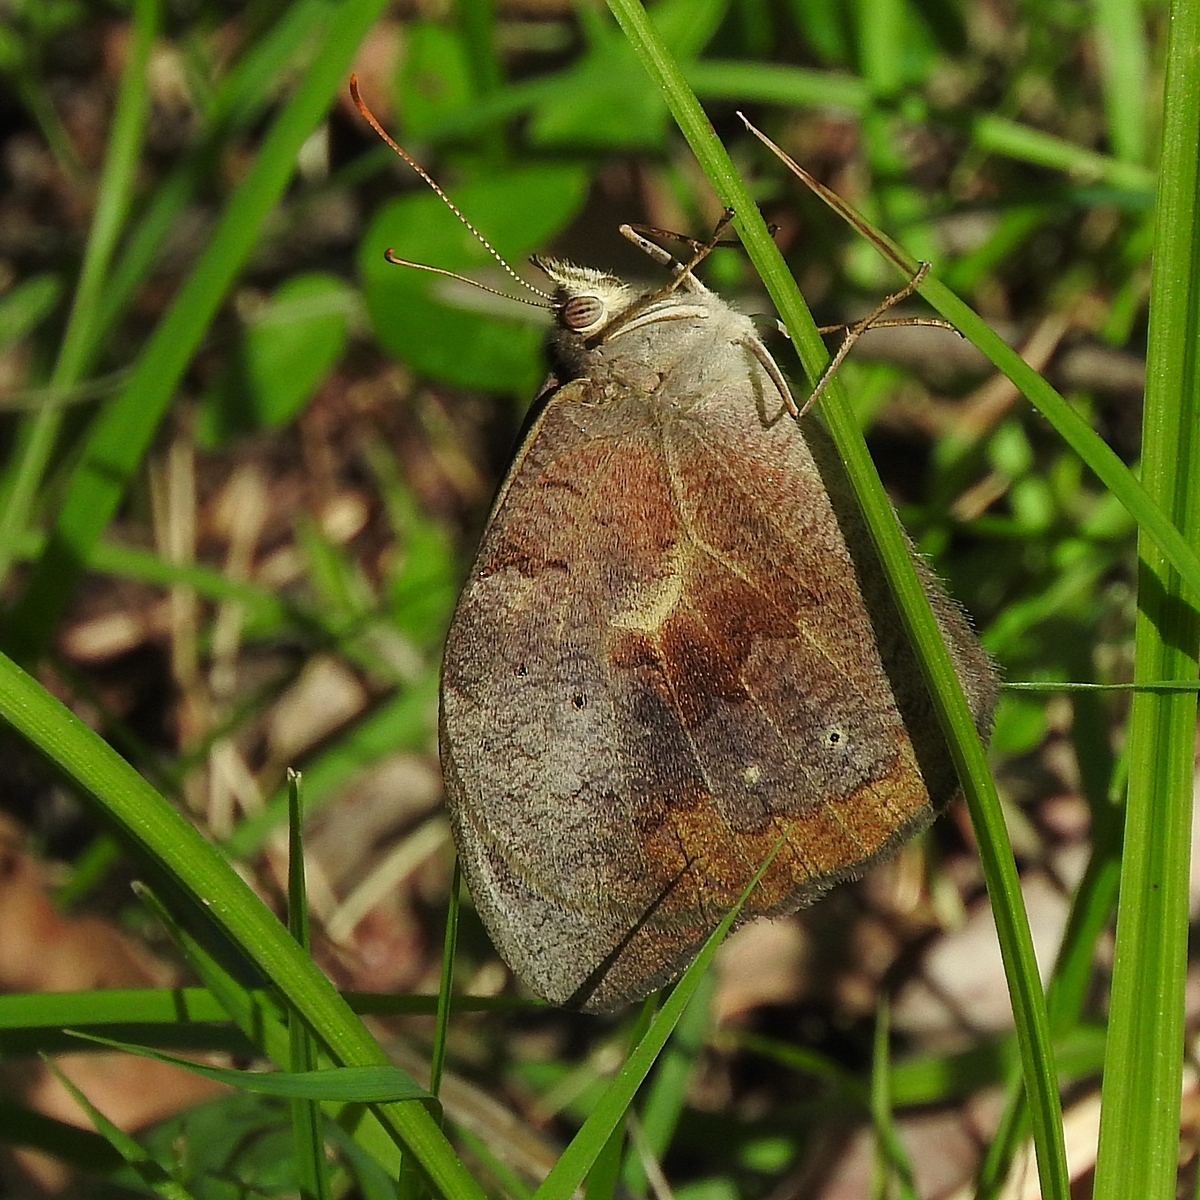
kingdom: Animalia
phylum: Arthropoda
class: Insecta
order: Lepidoptera
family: Nymphalidae
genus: Heteronympha
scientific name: Heteronympha merope
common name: Common brown
